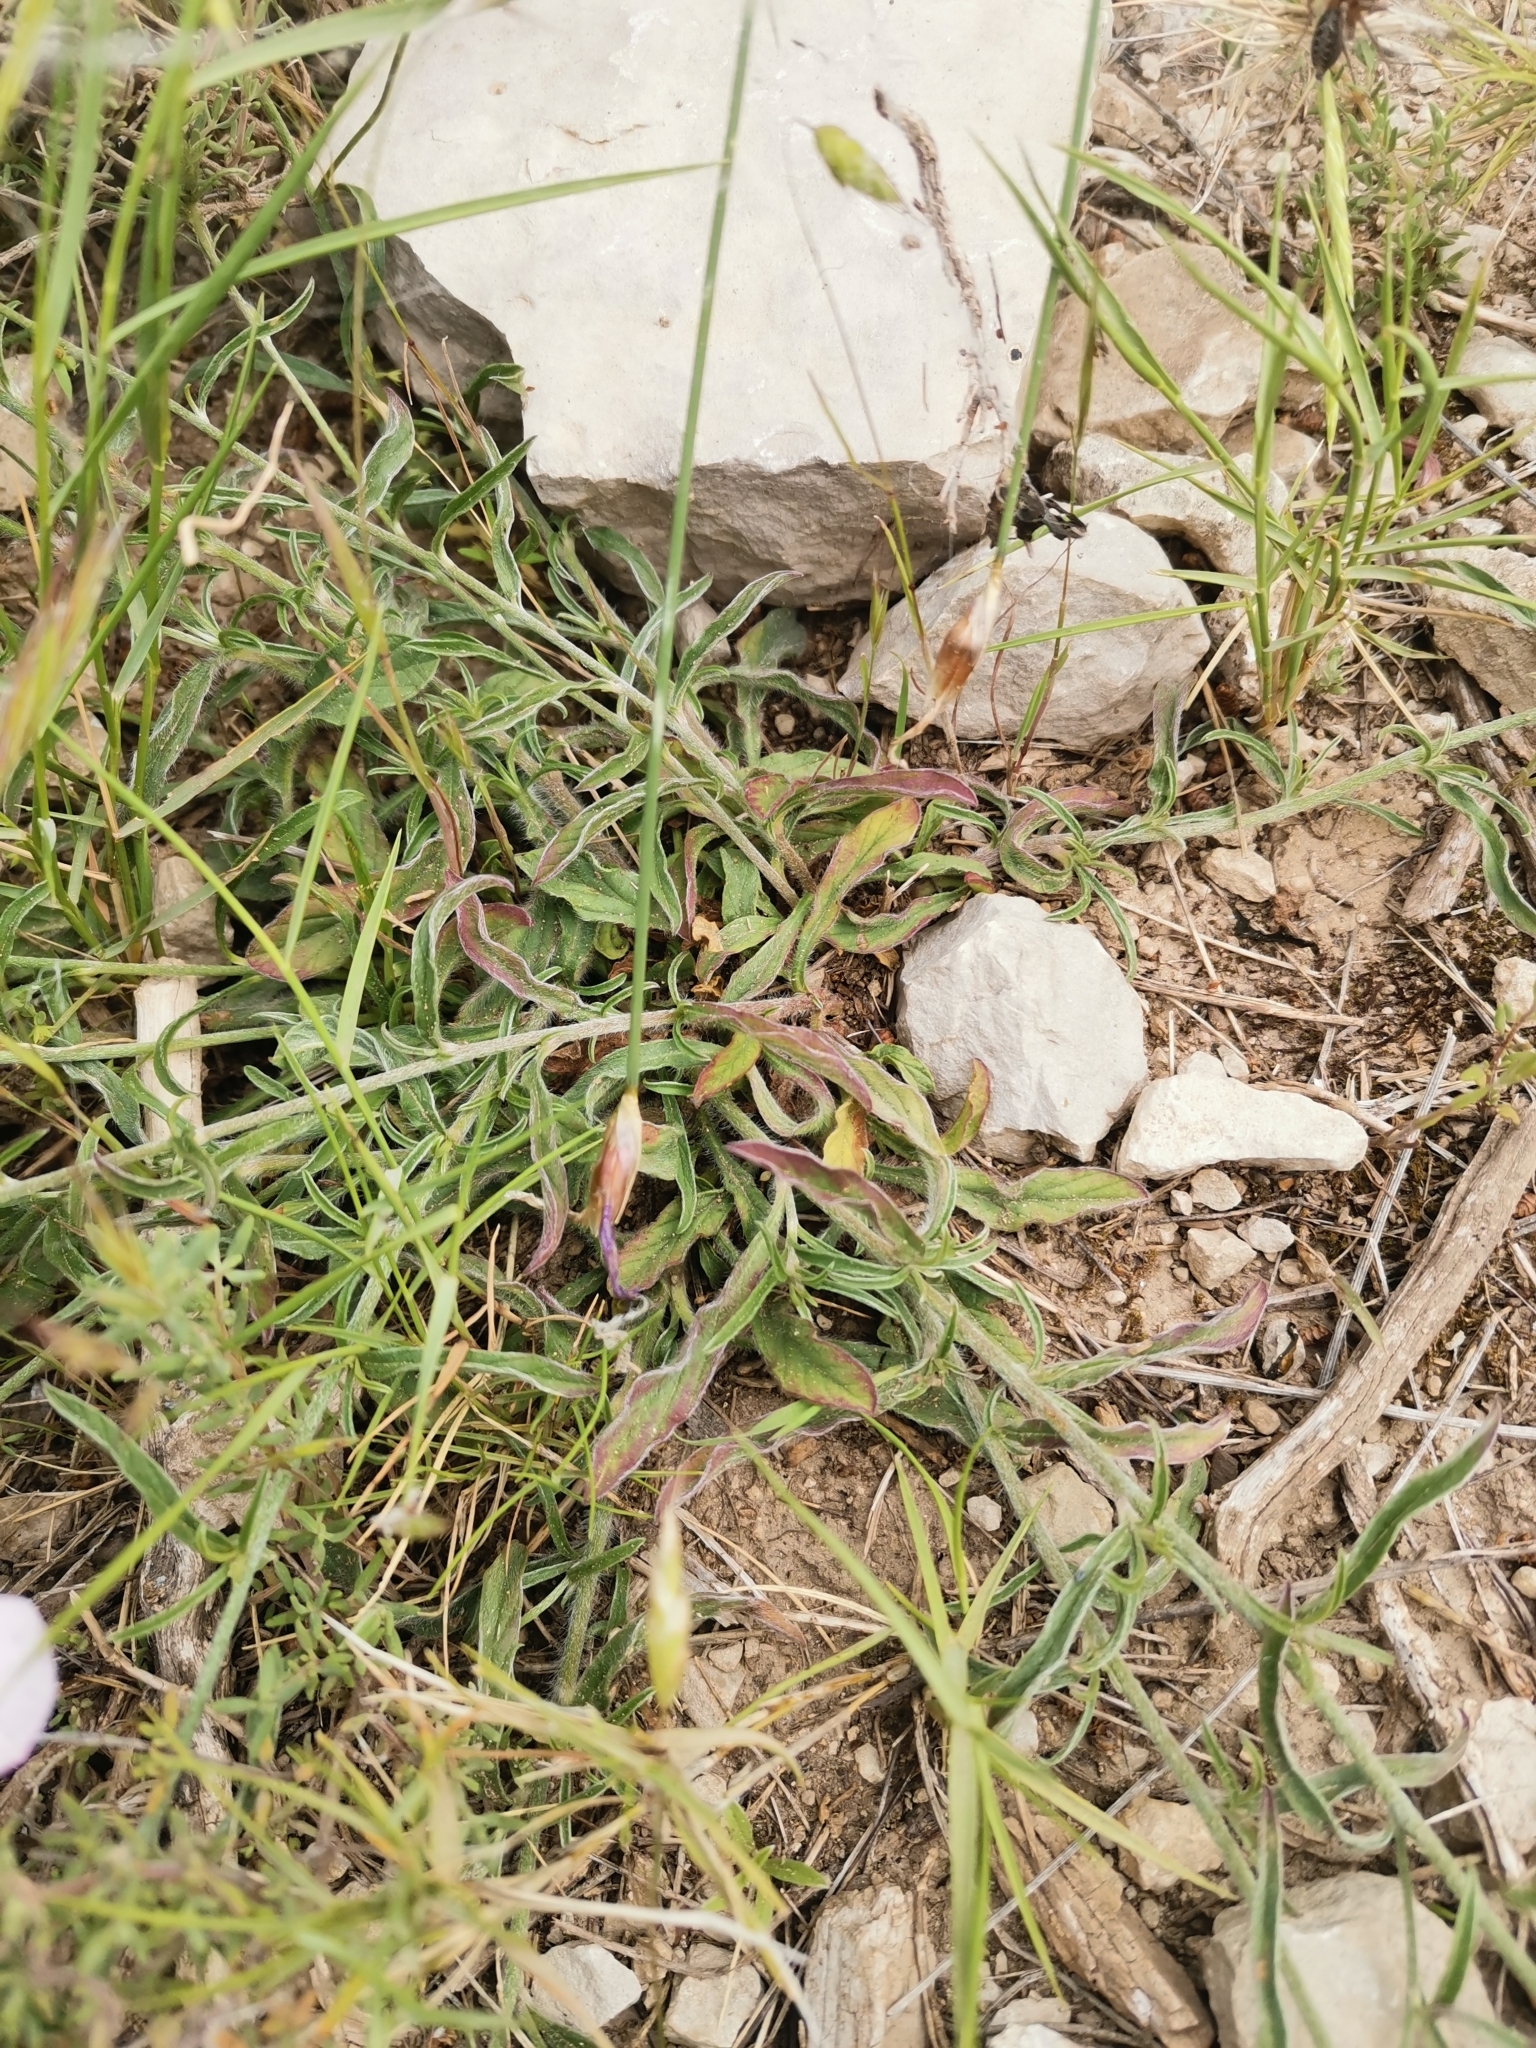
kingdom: Plantae
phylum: Tracheophyta
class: Magnoliopsida
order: Solanales
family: Convolvulaceae
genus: Convolvulus
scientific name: Convolvulus cantabrica
